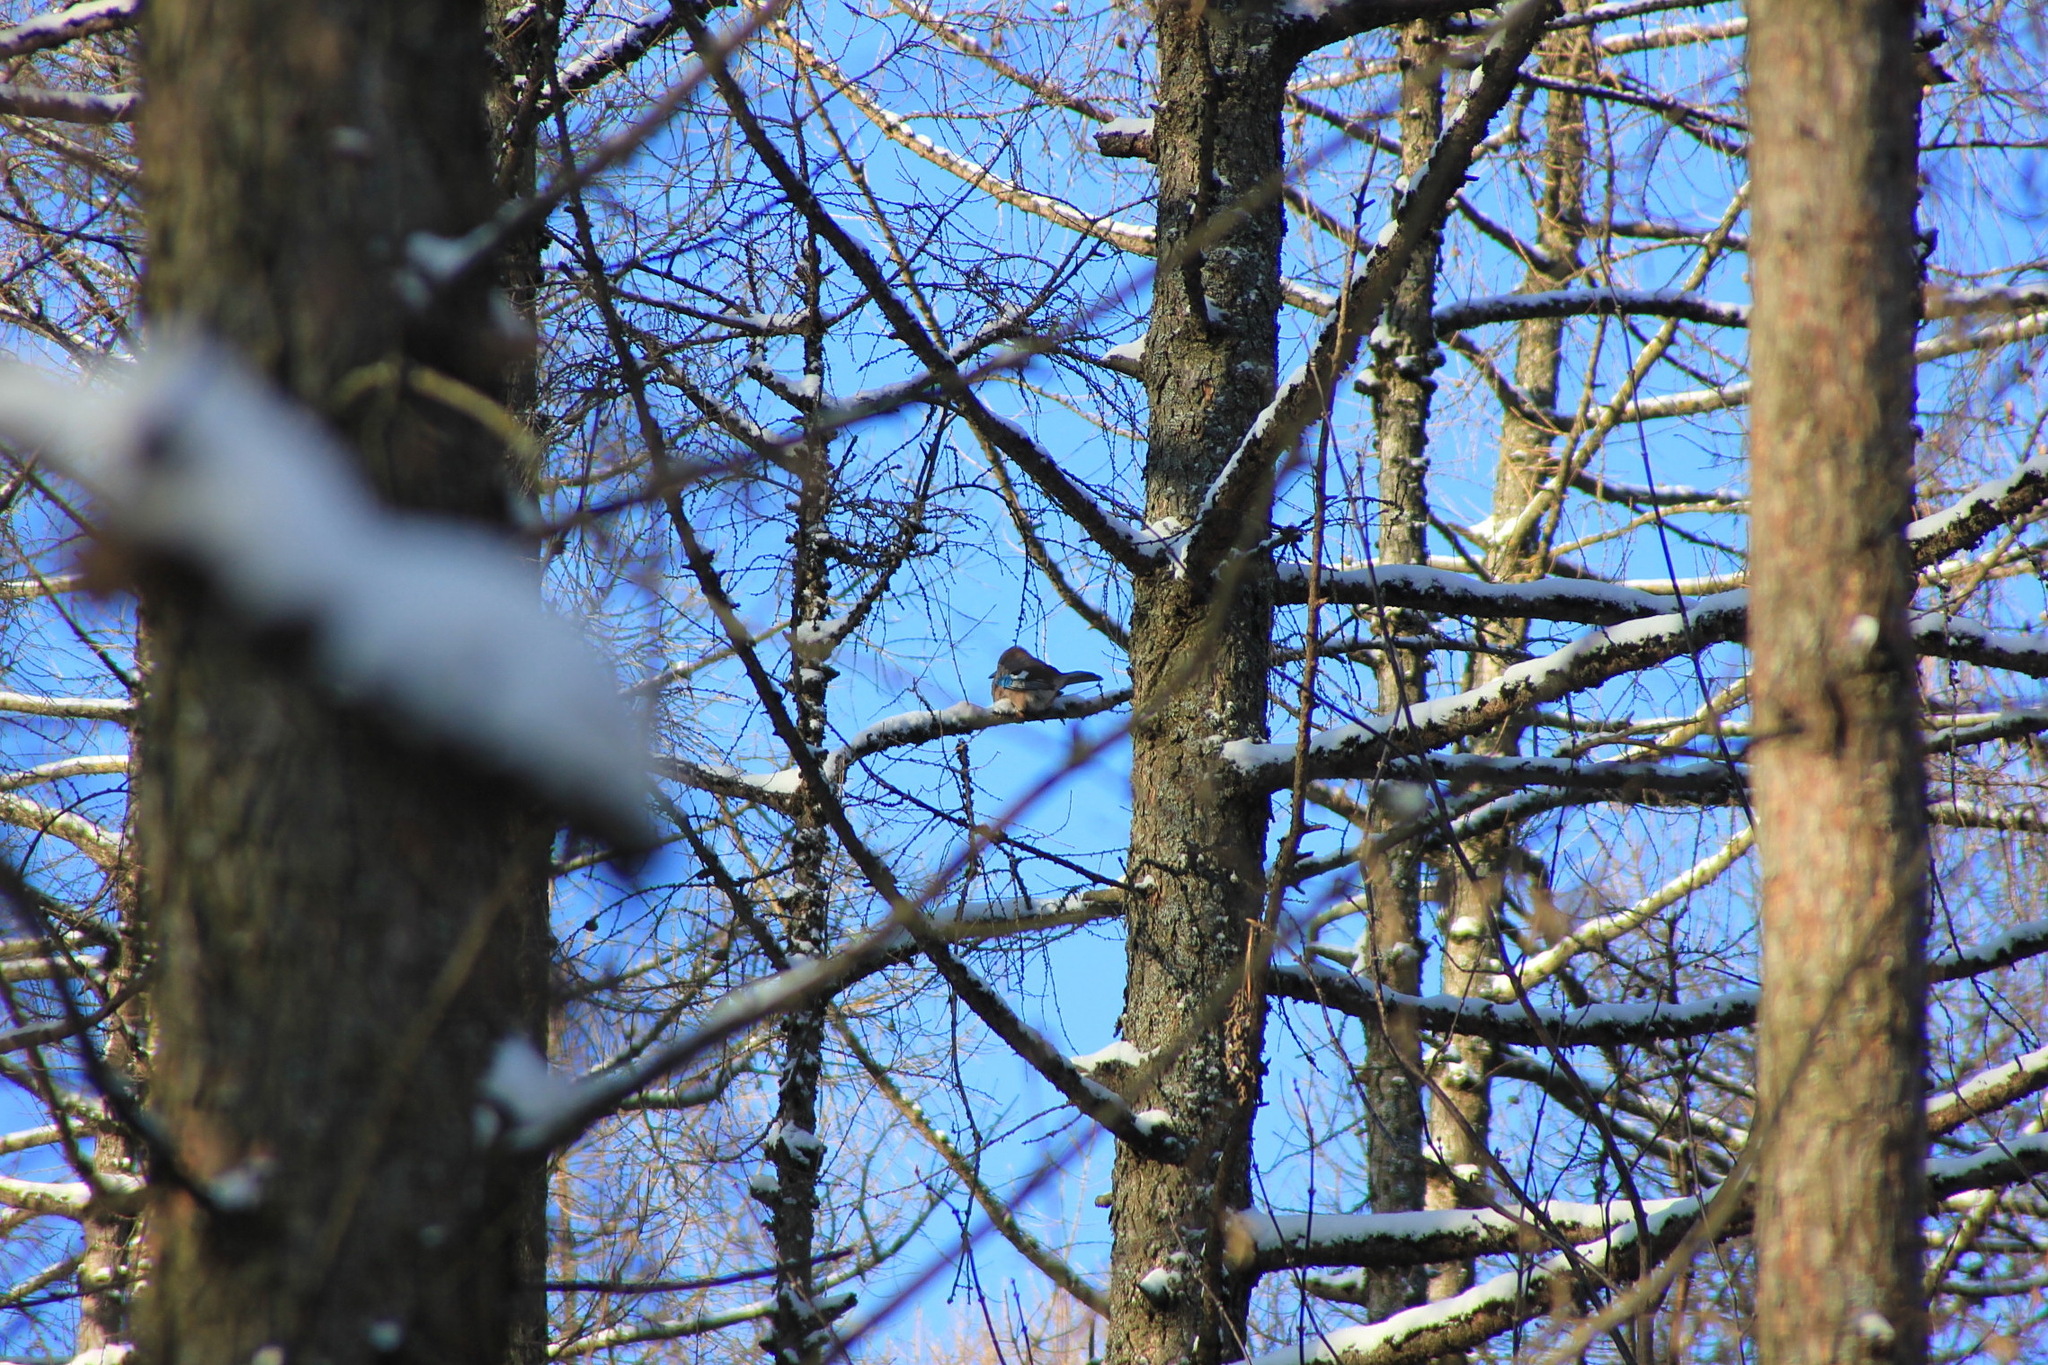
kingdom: Animalia
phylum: Chordata
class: Aves
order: Passeriformes
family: Corvidae
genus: Garrulus
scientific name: Garrulus glandarius
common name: Eurasian jay
